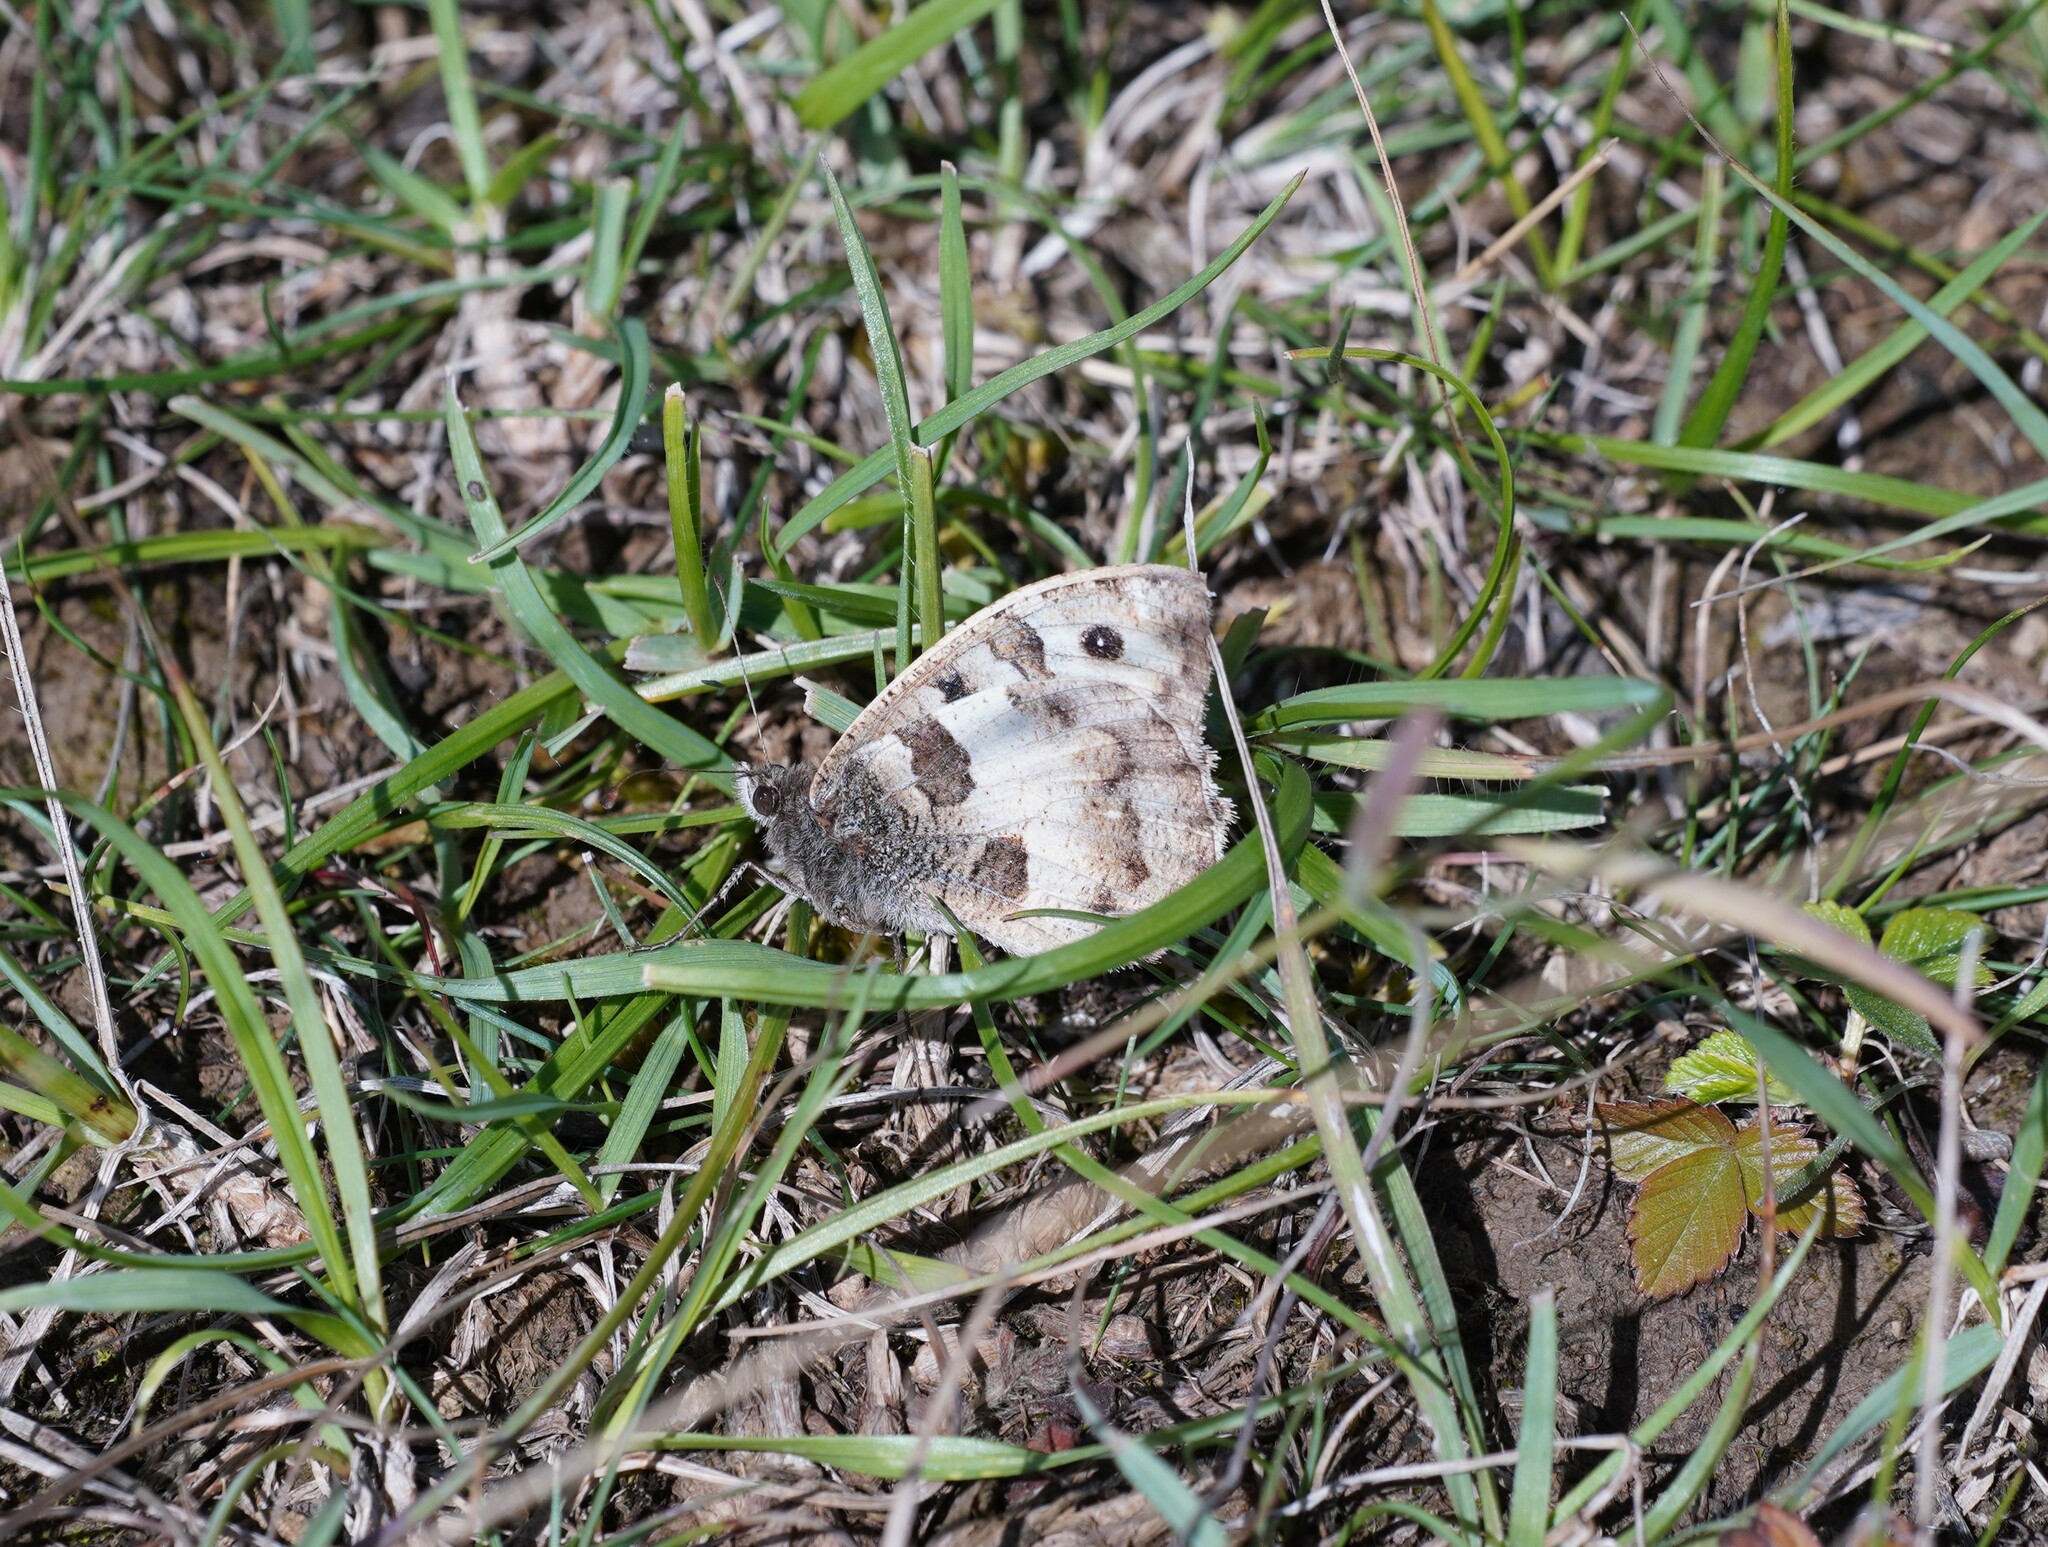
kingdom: Animalia
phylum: Arthropoda
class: Insecta
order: Lepidoptera
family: Nymphalidae
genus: Satyrus
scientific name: Satyrus briseis
